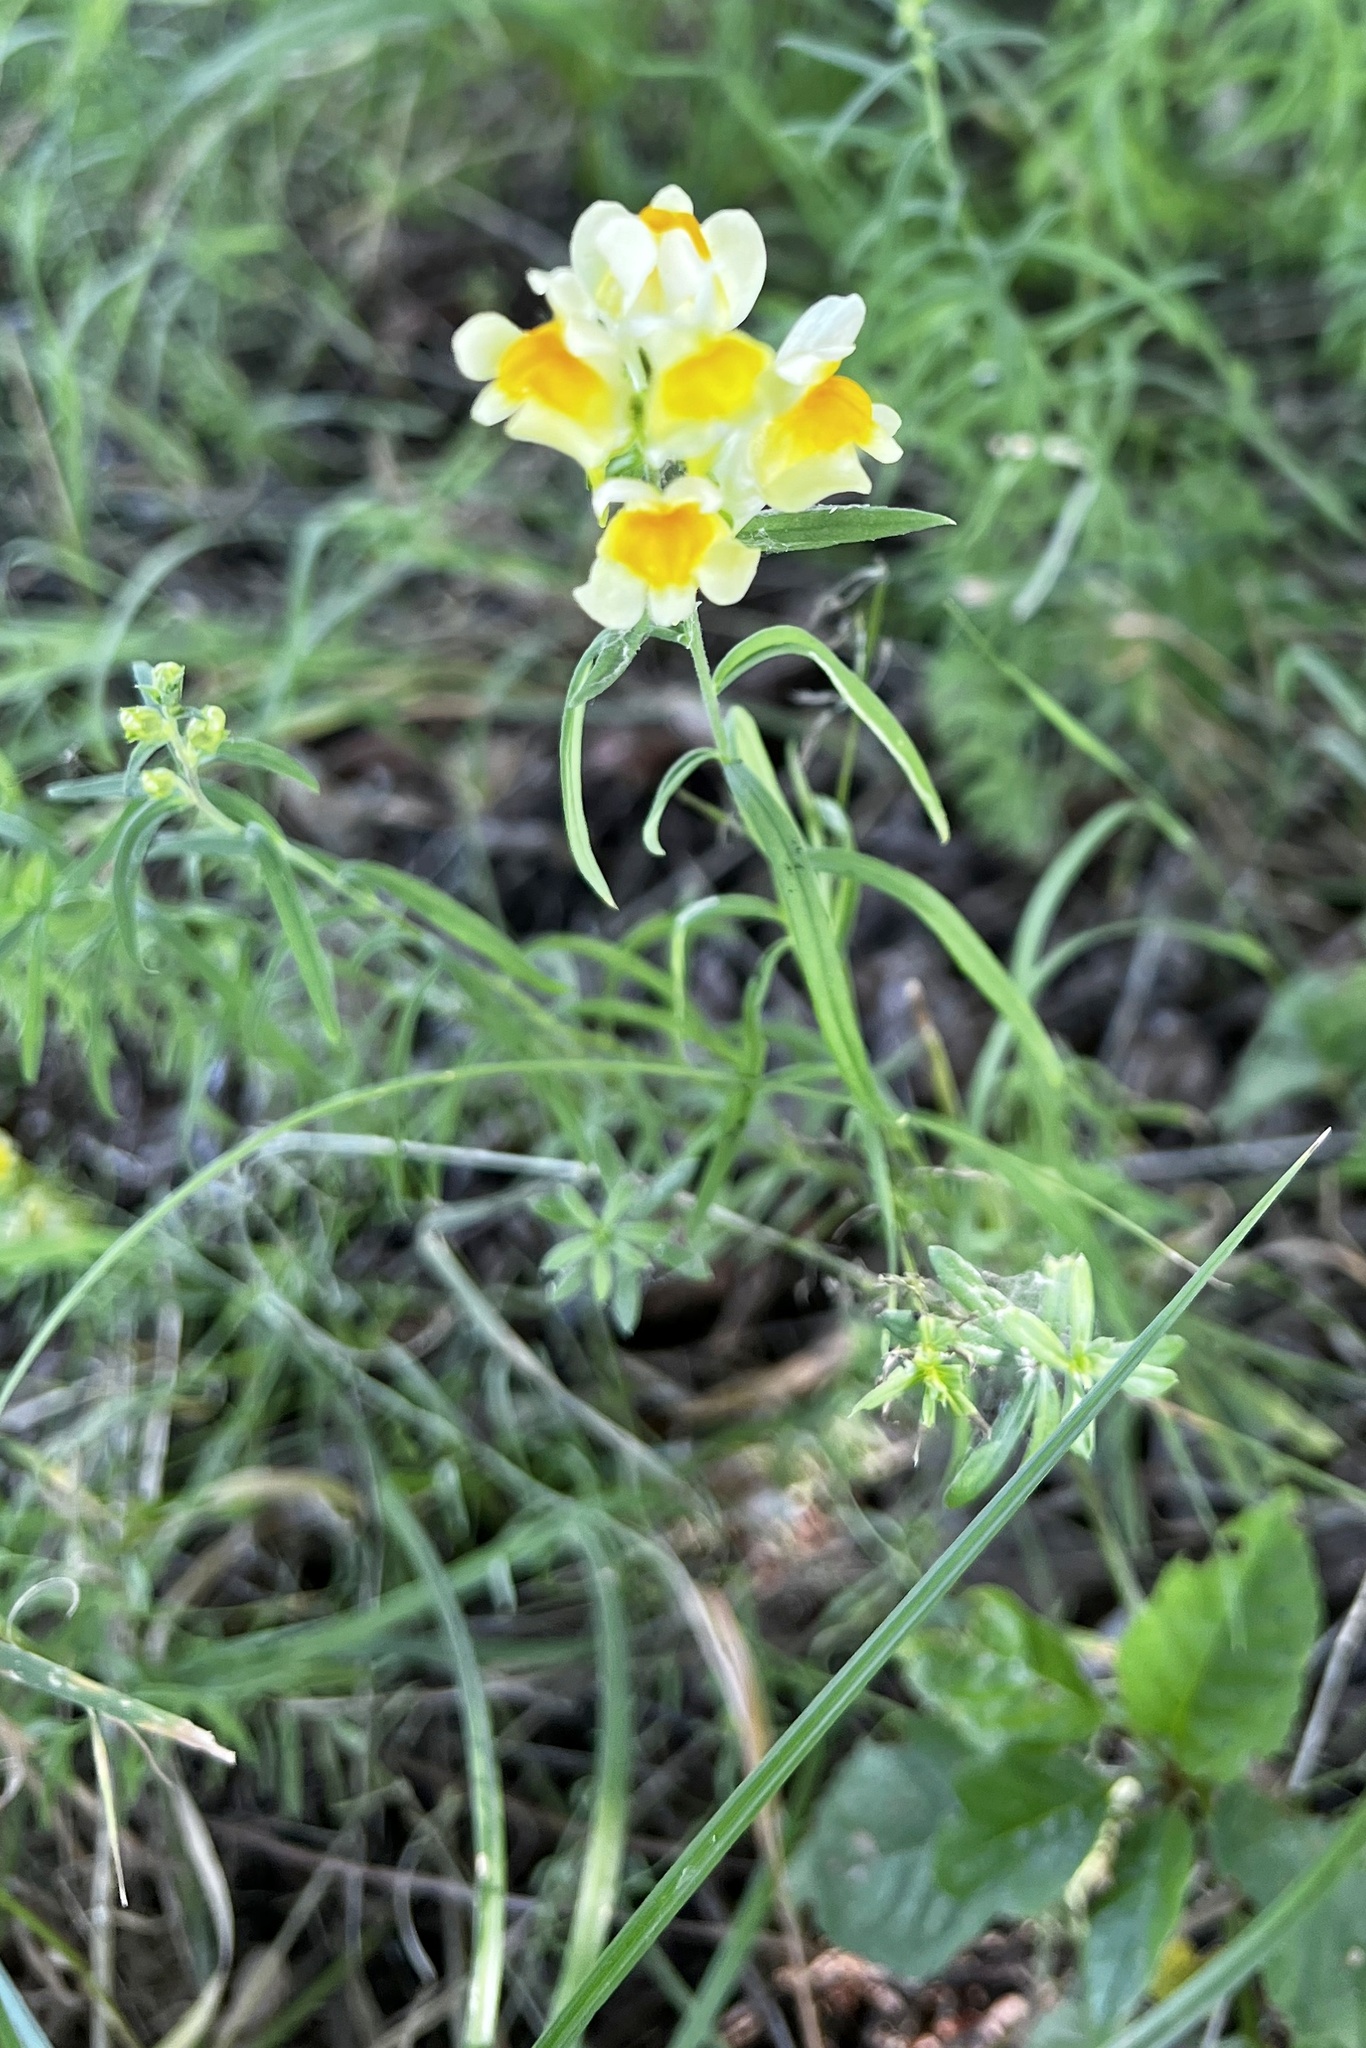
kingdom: Plantae
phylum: Tracheophyta
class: Magnoliopsida
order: Lamiales
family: Plantaginaceae
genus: Linaria
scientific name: Linaria vulgaris
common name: Butter and eggs
